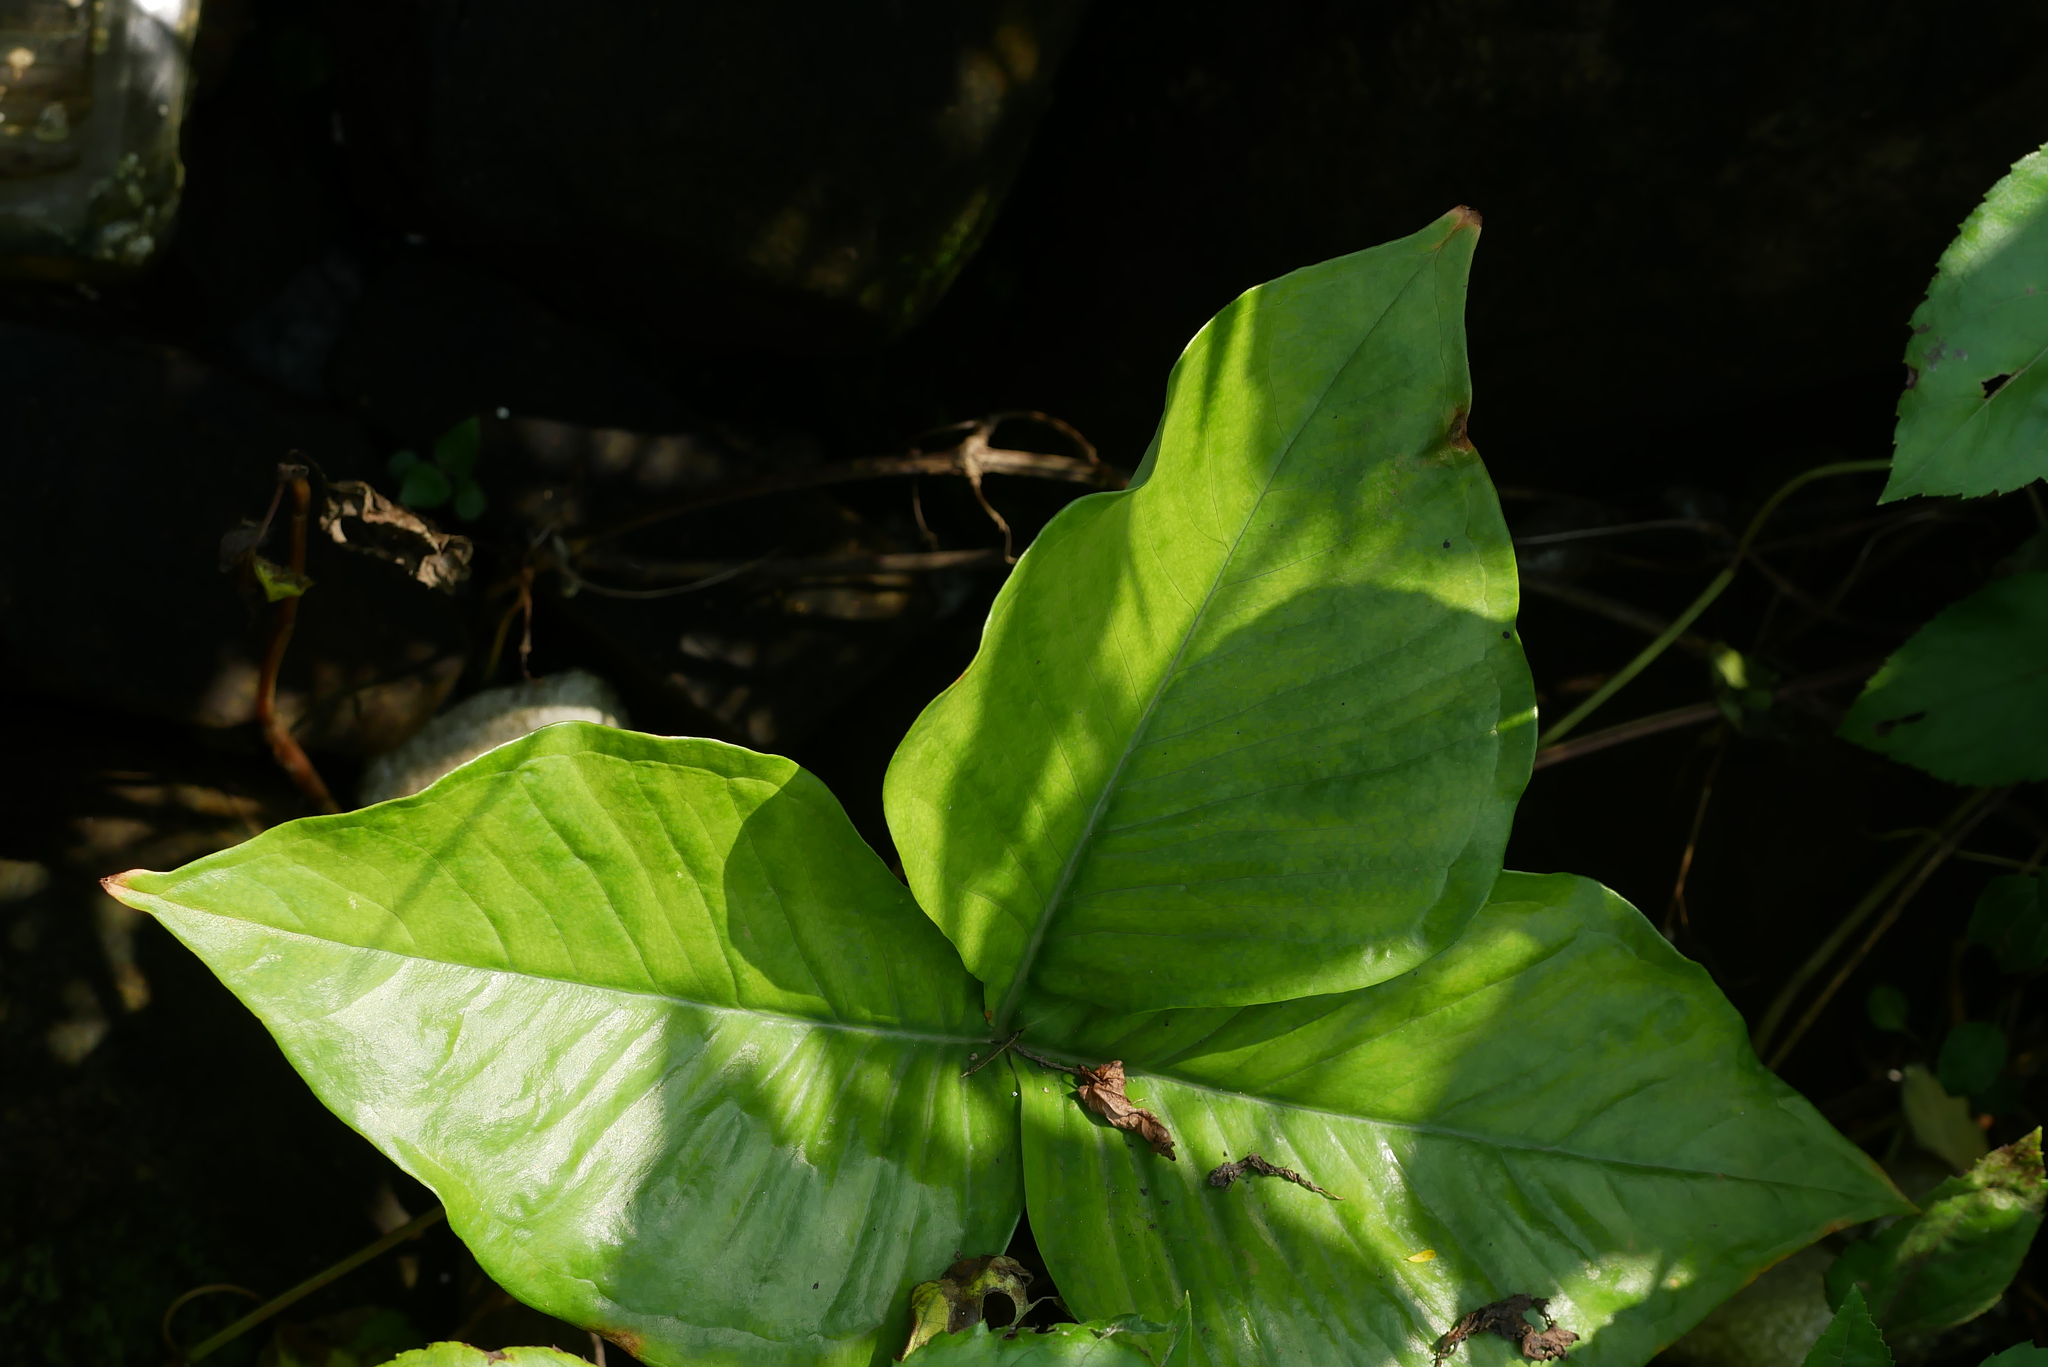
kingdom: Plantae
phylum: Tracheophyta
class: Liliopsida
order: Alismatales
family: Araceae
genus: Arisaema
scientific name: Arisaema ringens
